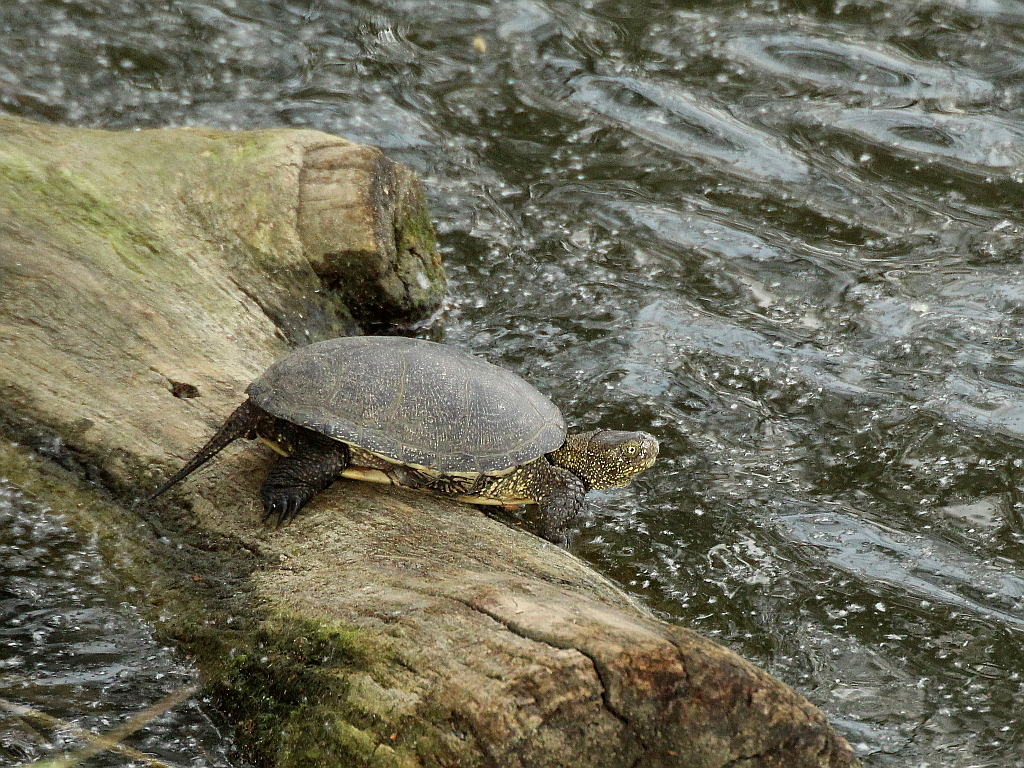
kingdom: Animalia
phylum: Chordata
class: Testudines
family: Emydidae
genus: Emys
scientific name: Emys orbicularis
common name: European pond turtle
